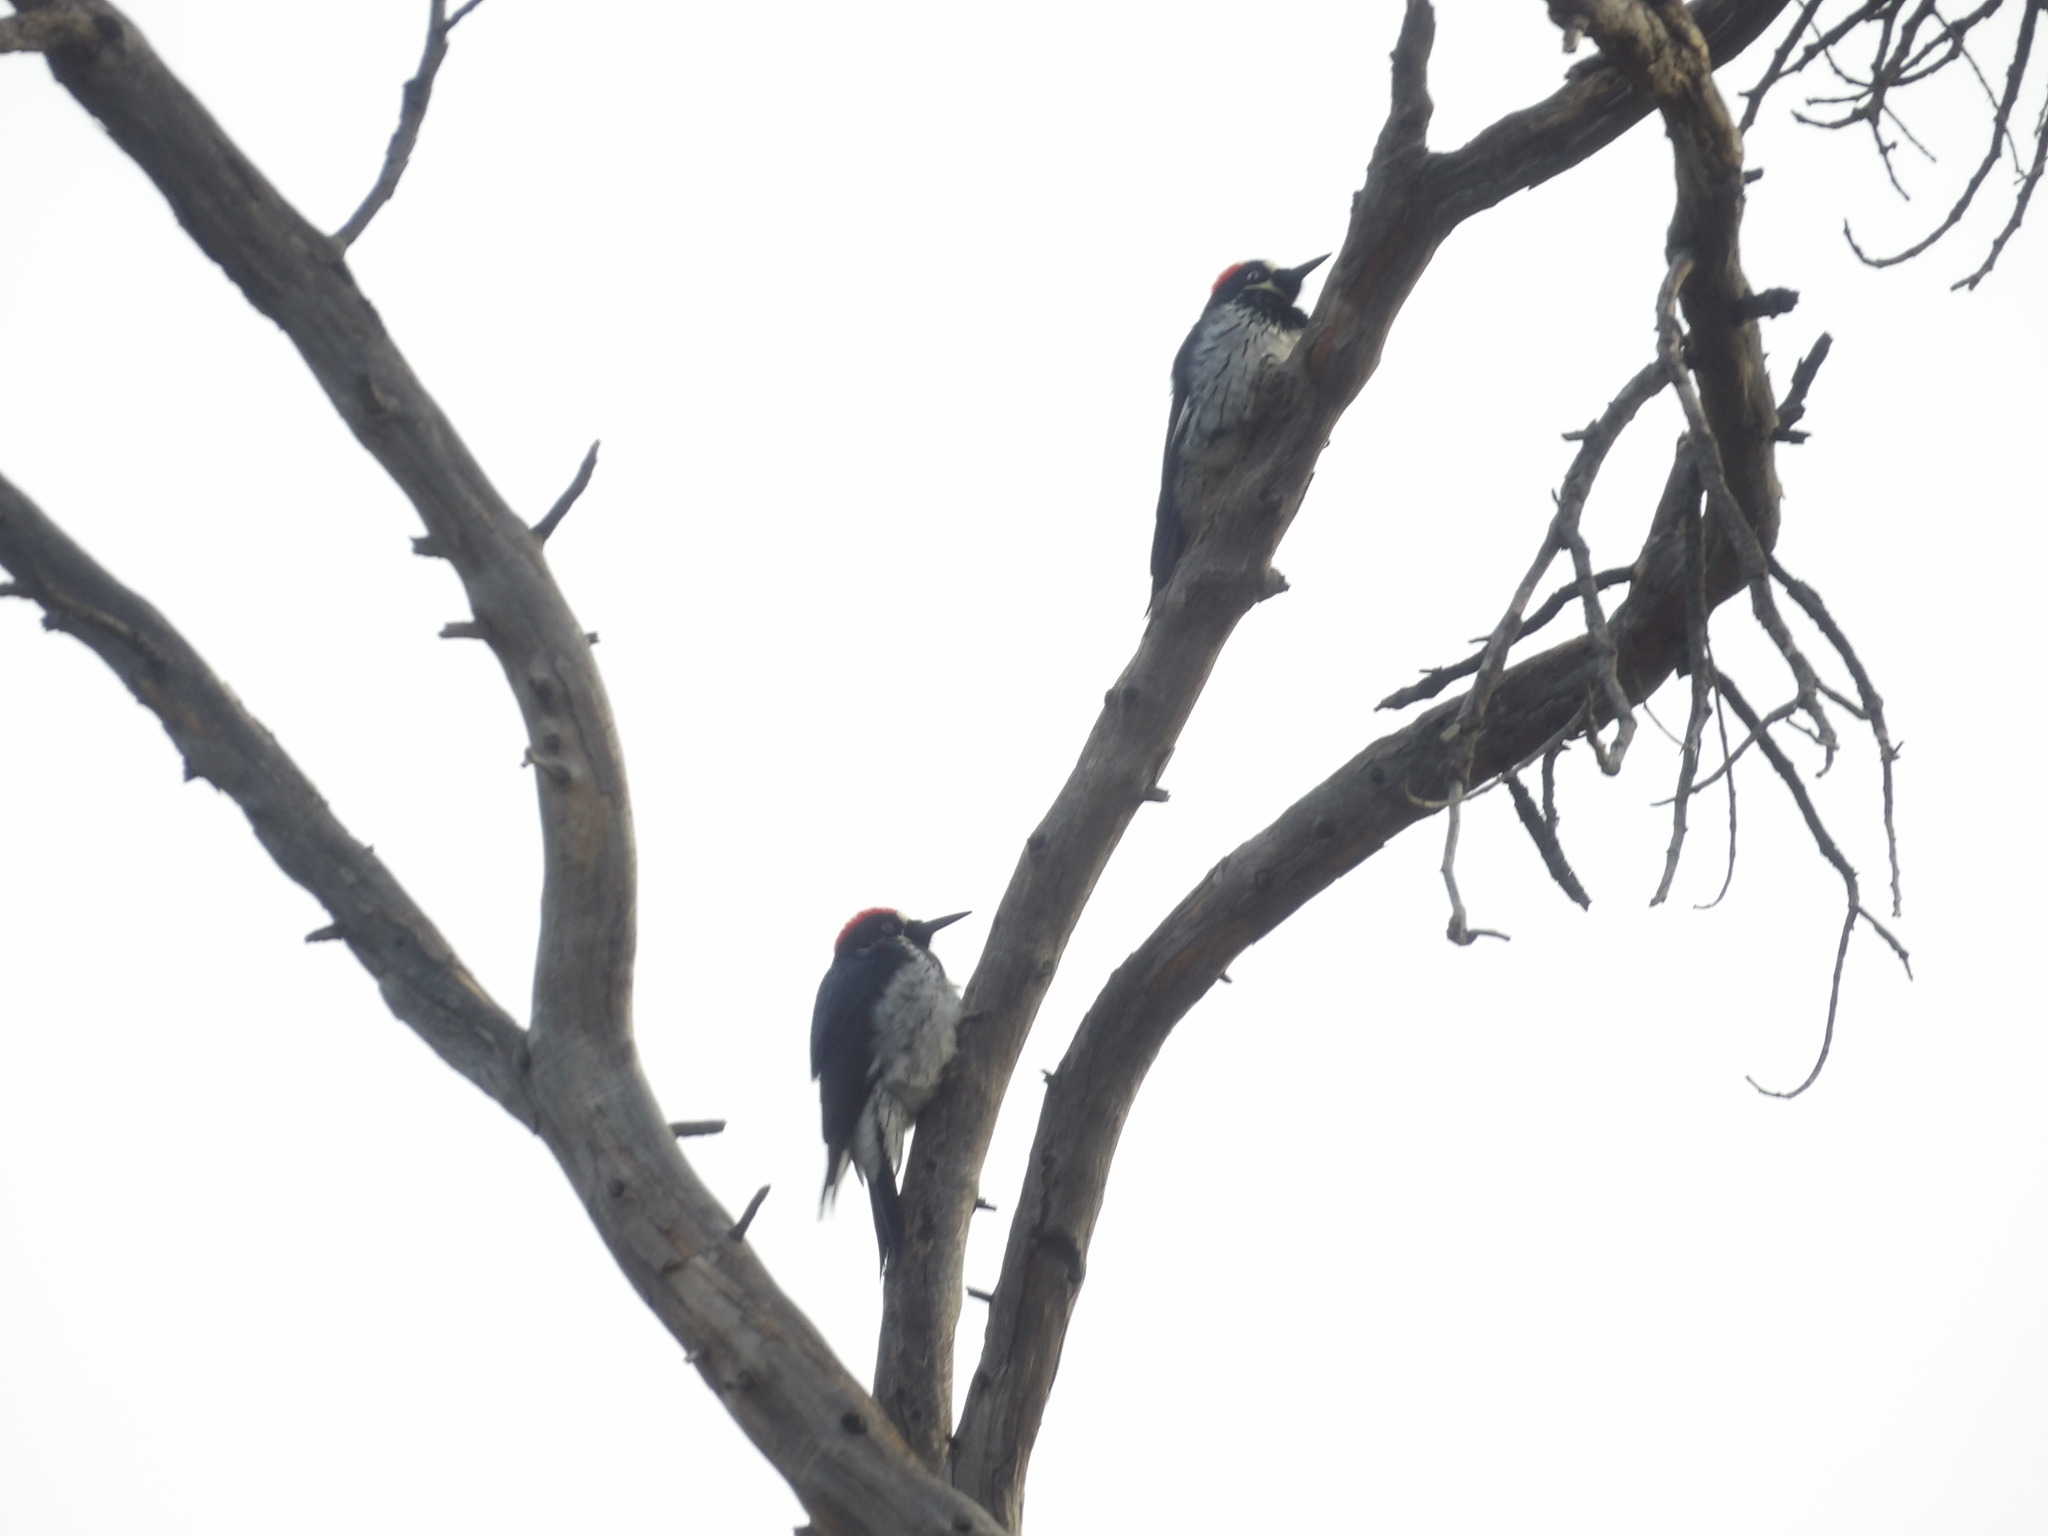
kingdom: Animalia
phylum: Chordata
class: Aves
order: Piciformes
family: Picidae
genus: Melanerpes
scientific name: Melanerpes formicivorus
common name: Acorn woodpecker
